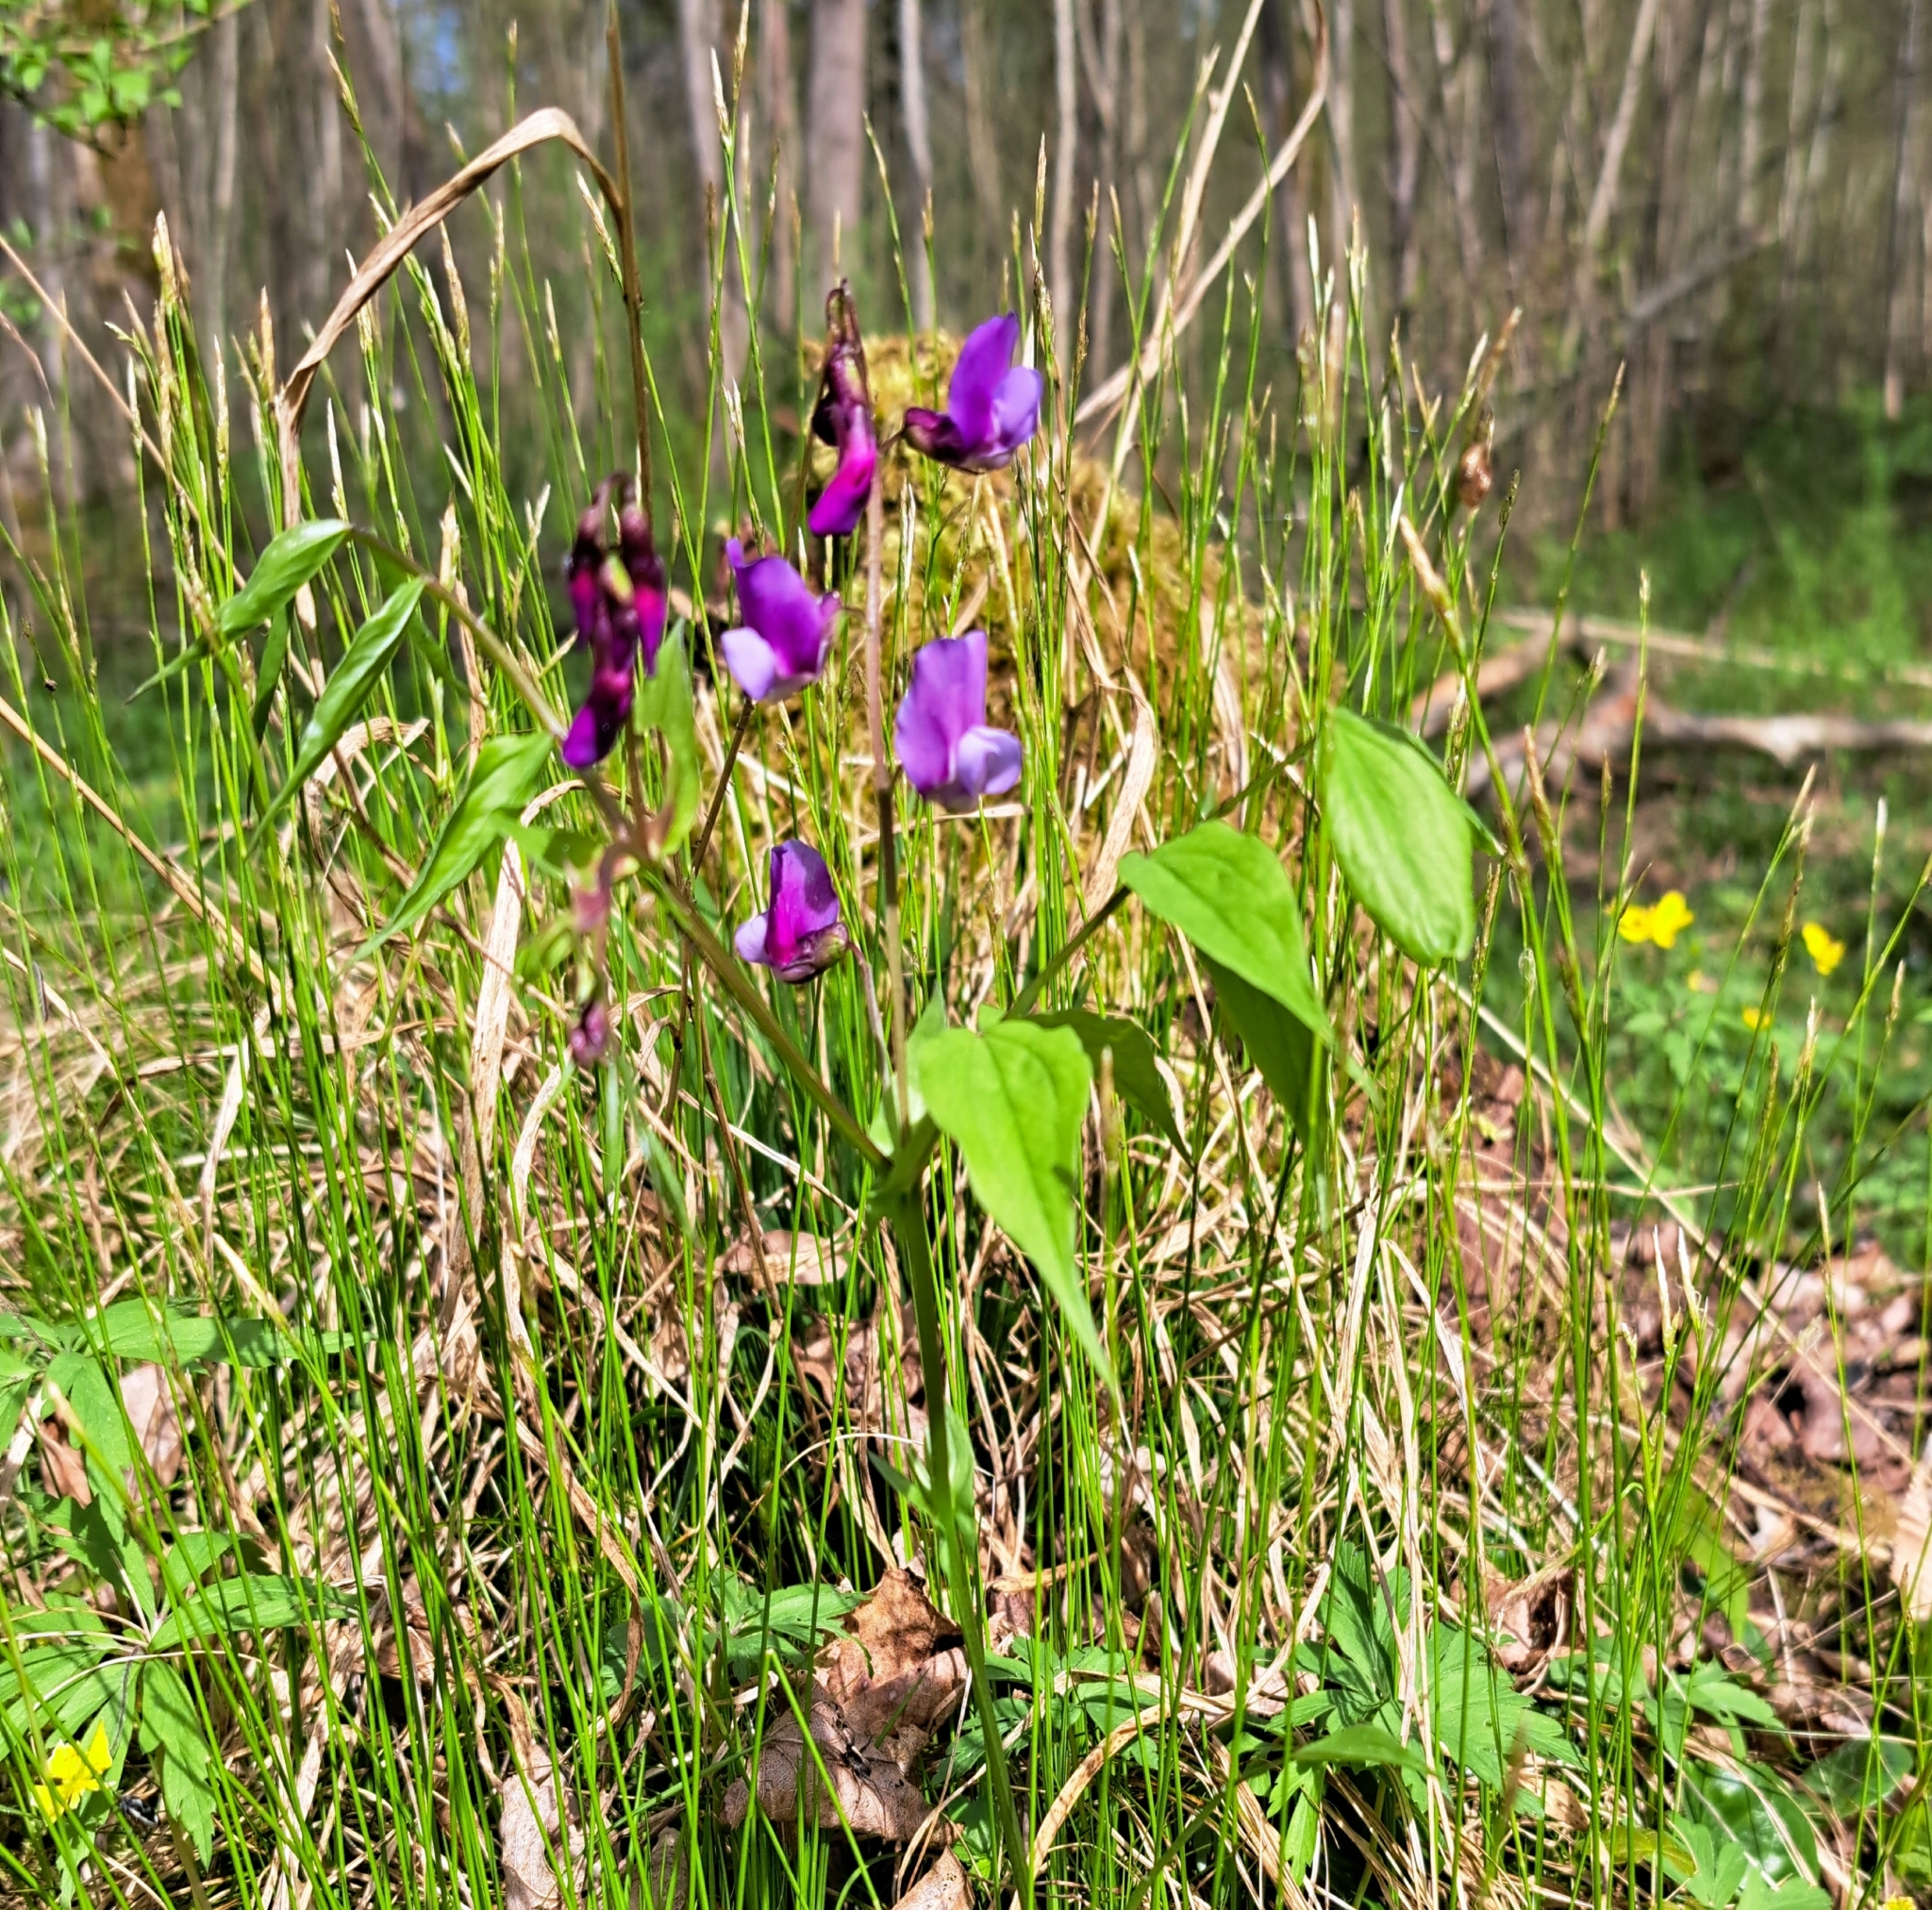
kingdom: Plantae
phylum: Tracheophyta
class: Magnoliopsida
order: Fabales
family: Fabaceae
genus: Lathyrus
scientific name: Lathyrus vernus
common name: Spring pea
